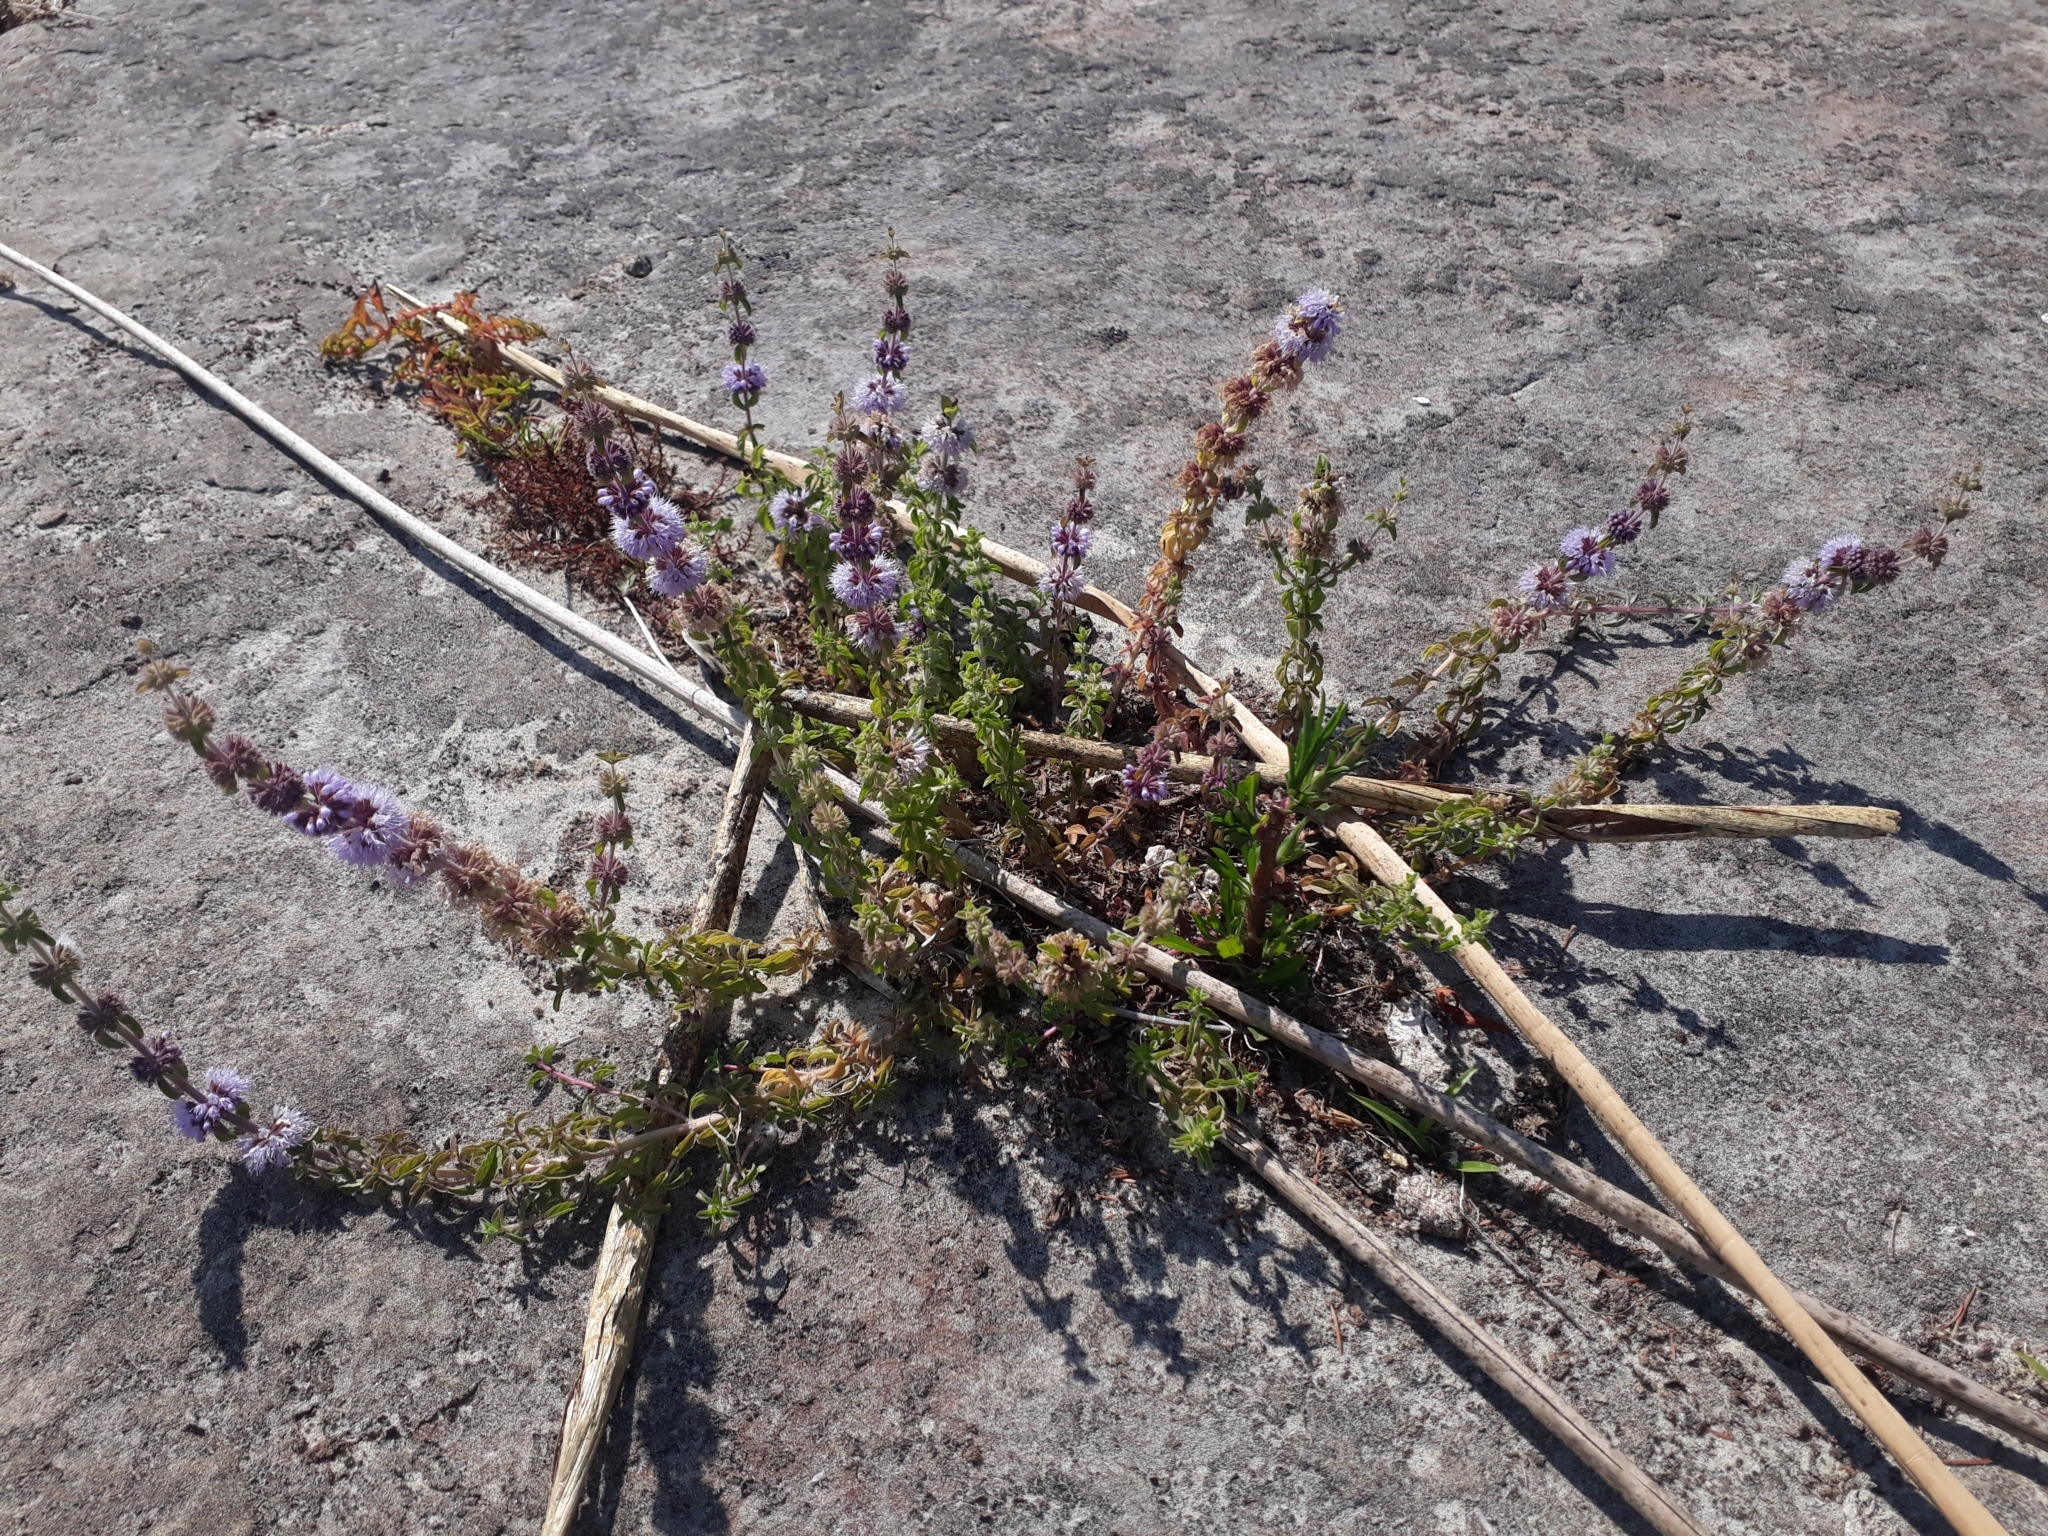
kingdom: Plantae
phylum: Tracheophyta
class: Magnoliopsida
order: Lamiales
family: Lamiaceae
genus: Mentha
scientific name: Mentha pulegium
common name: Pennyroyal
